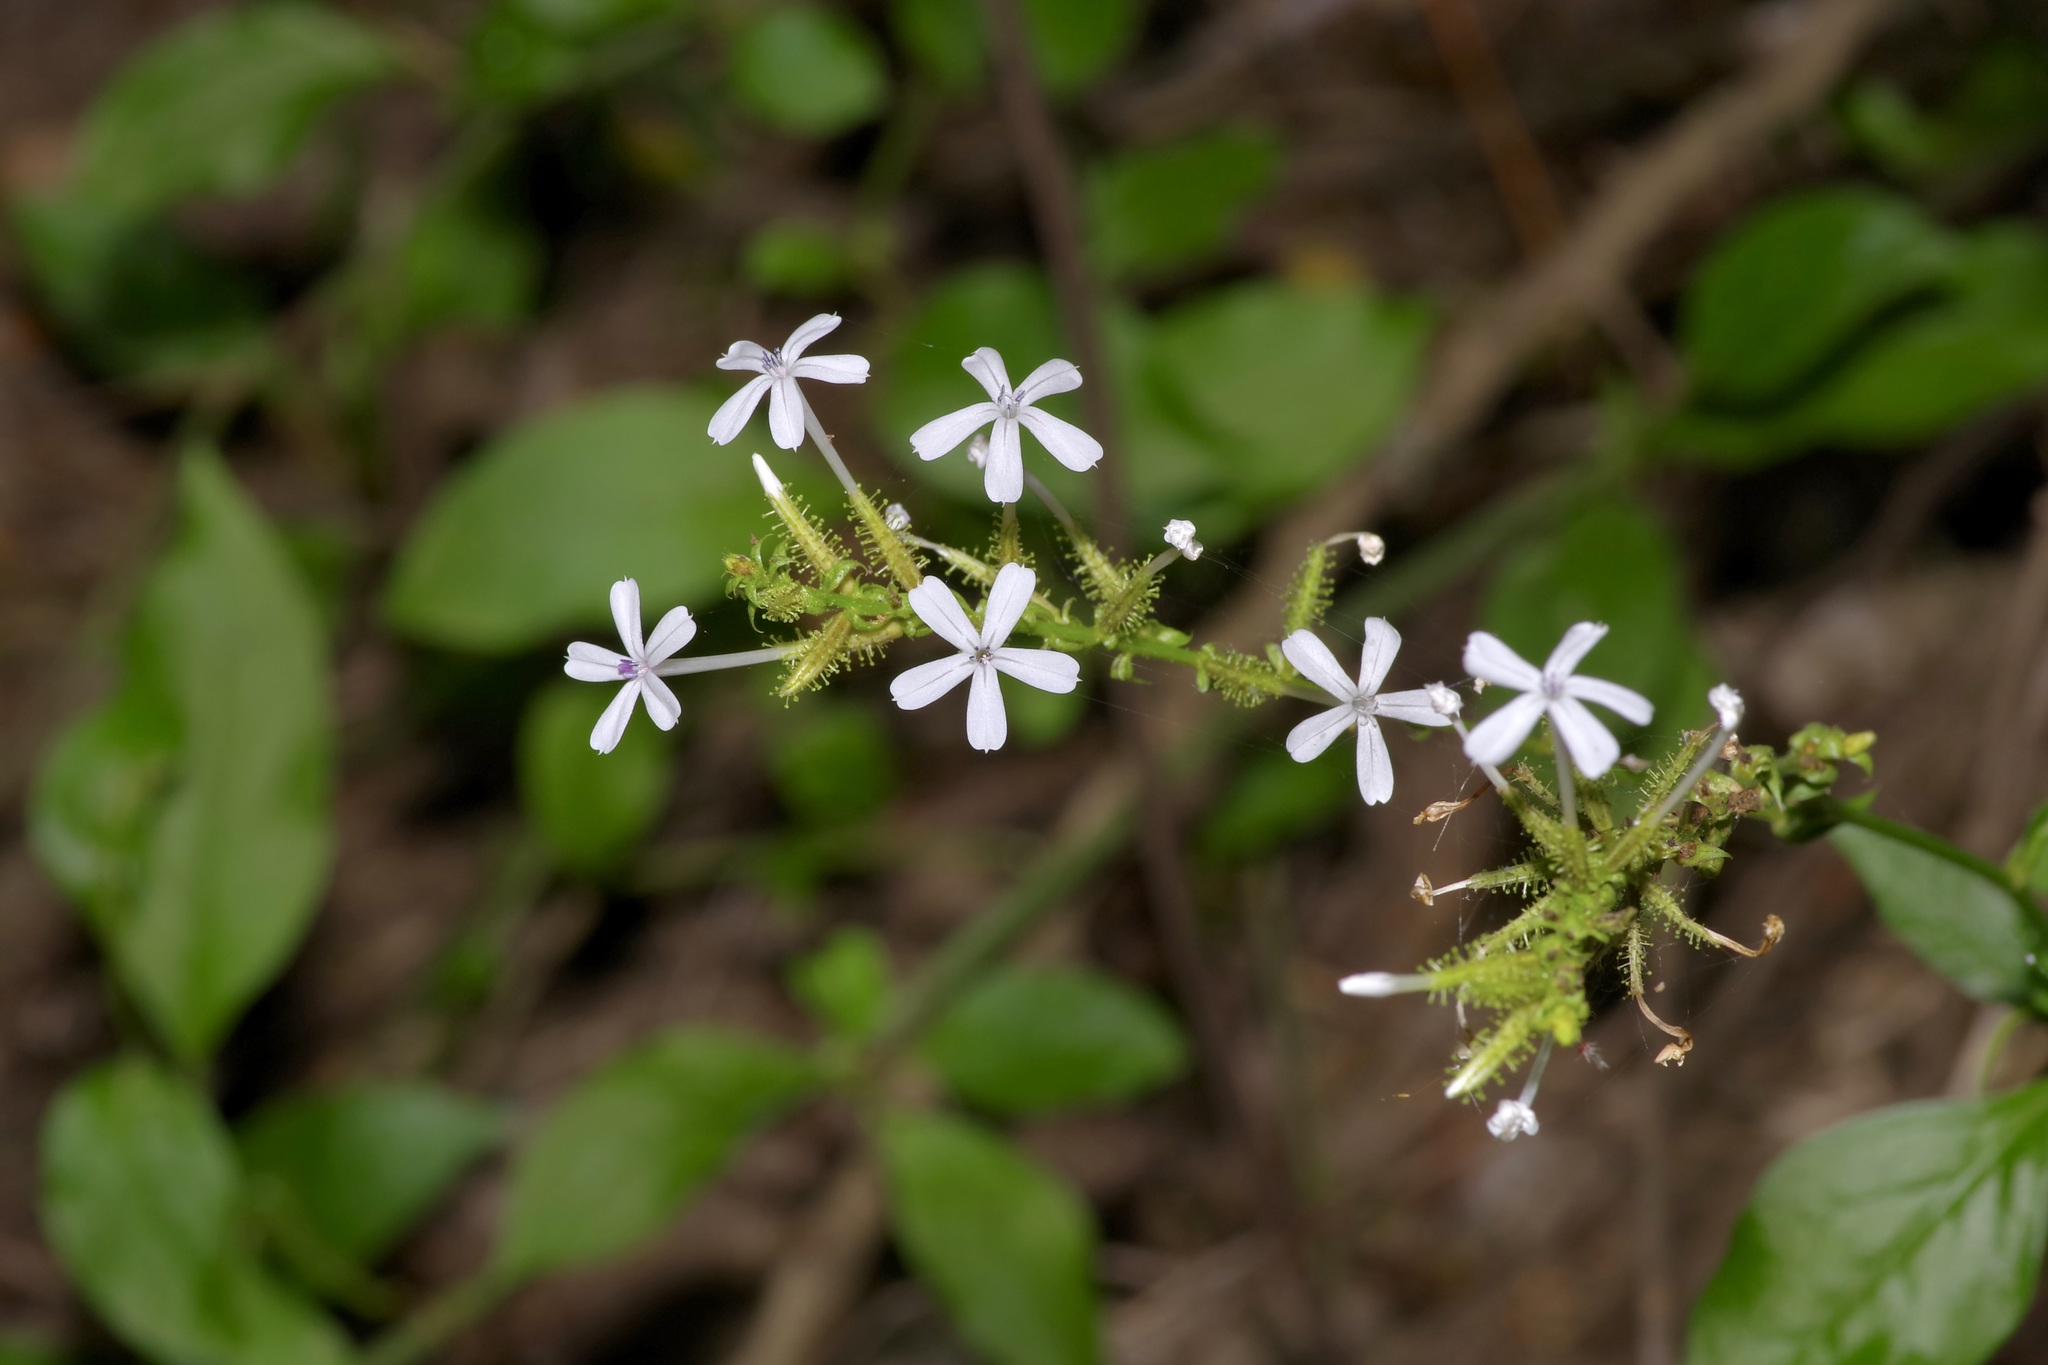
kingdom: Plantae
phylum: Tracheophyta
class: Magnoliopsida
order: Caryophyllales
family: Plumbaginaceae
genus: Plumbago
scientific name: Plumbago zeylanica
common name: Doctorbush
